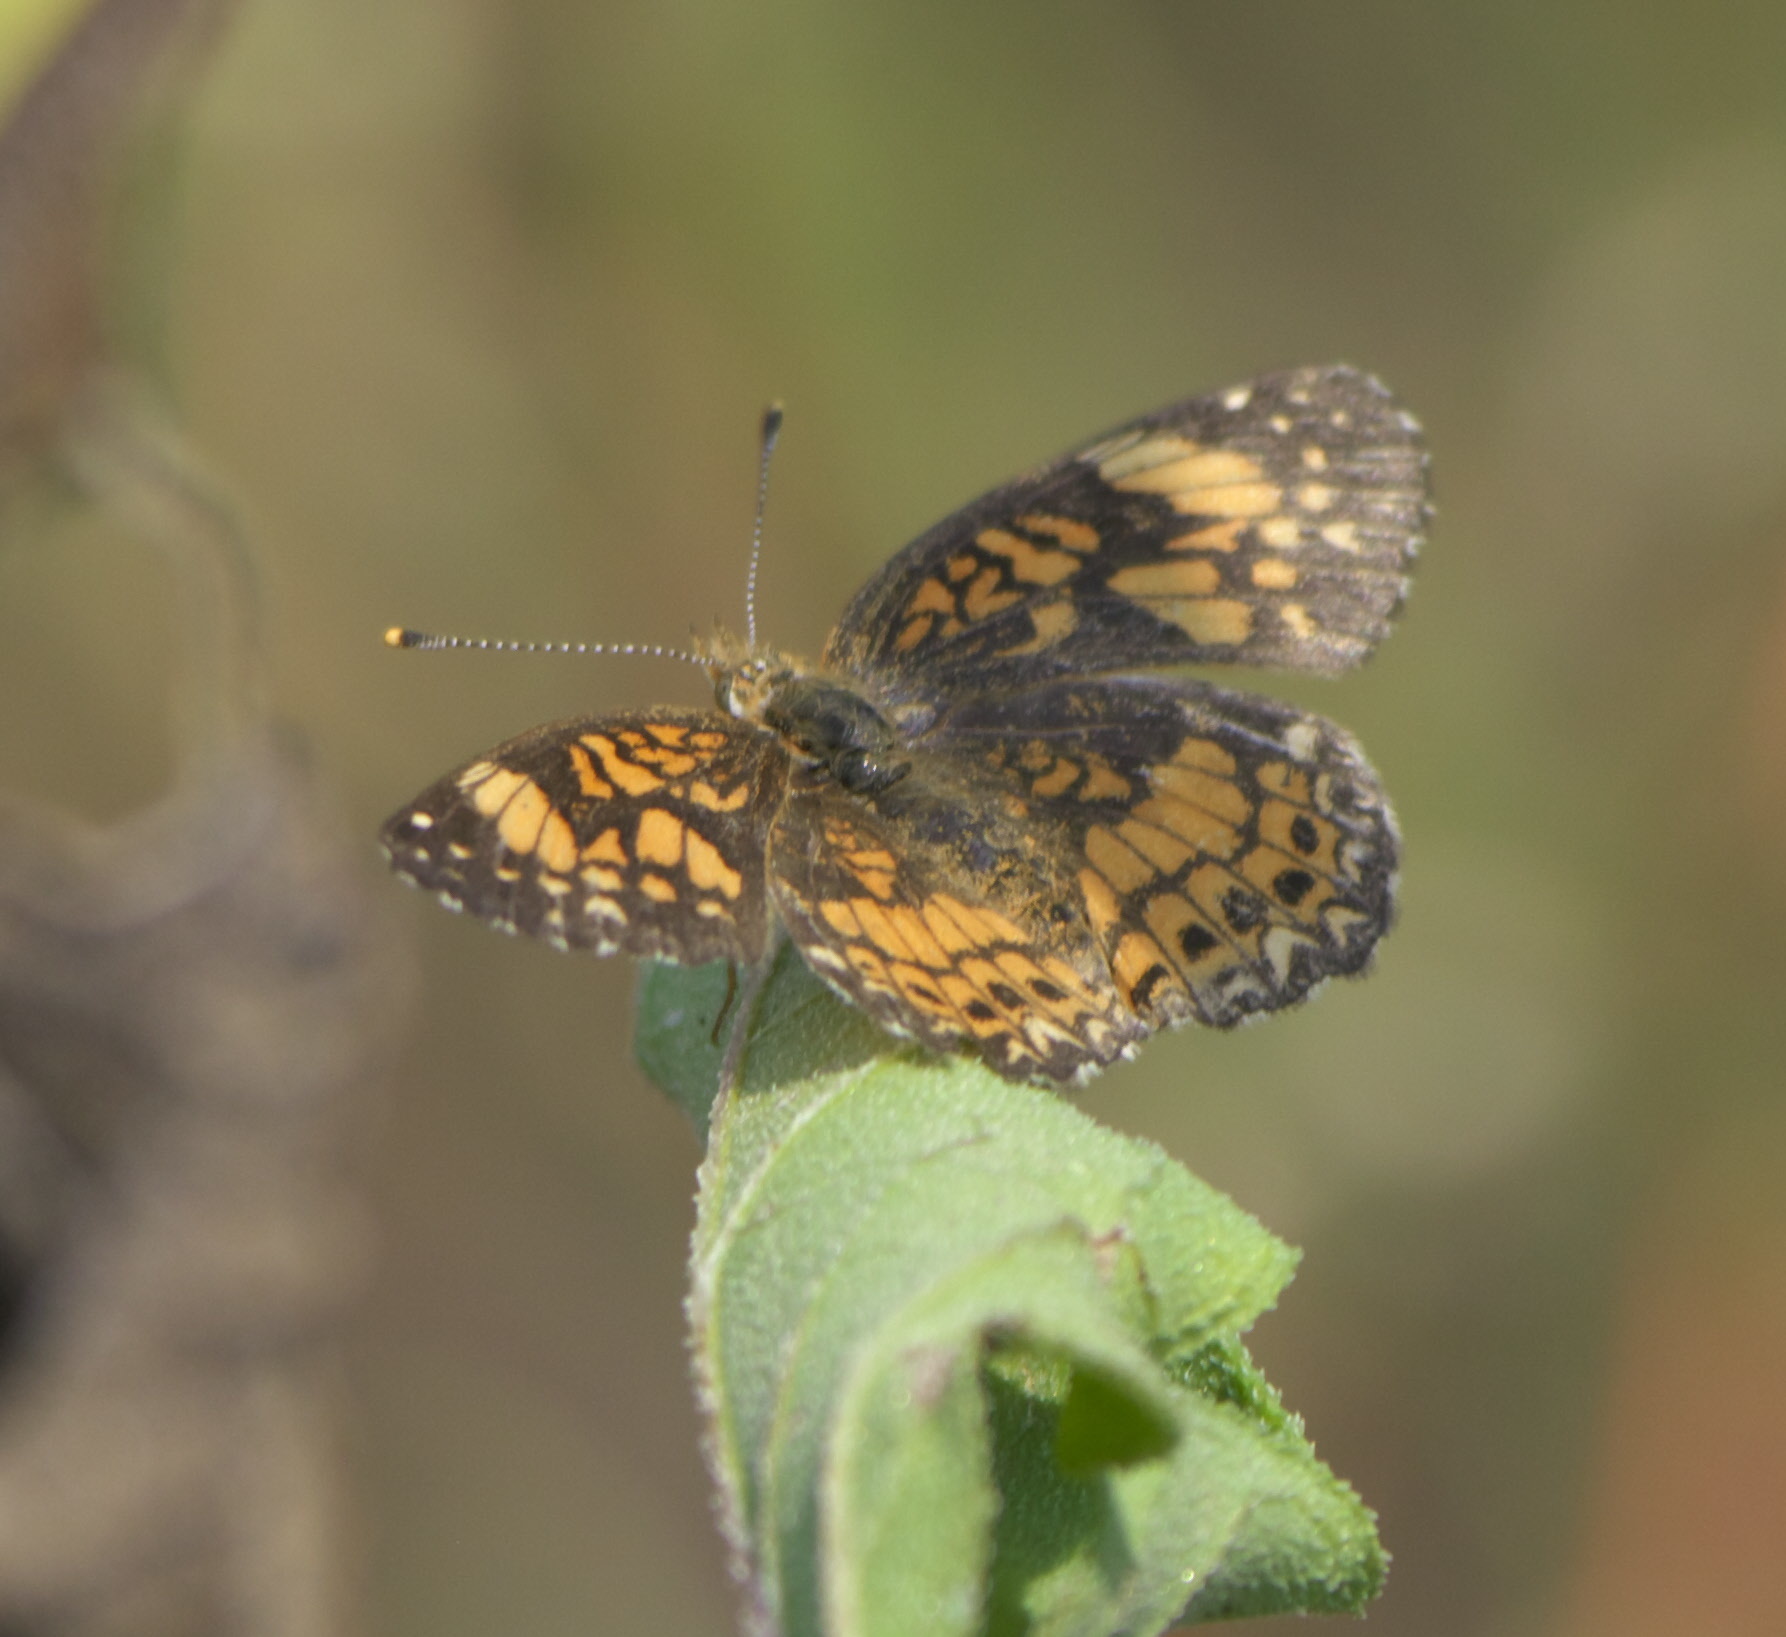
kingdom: Animalia
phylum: Arthropoda
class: Insecta
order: Lepidoptera
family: Nymphalidae
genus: Chlosyne
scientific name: Chlosyne gorgone
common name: Gorgone checkerspot
